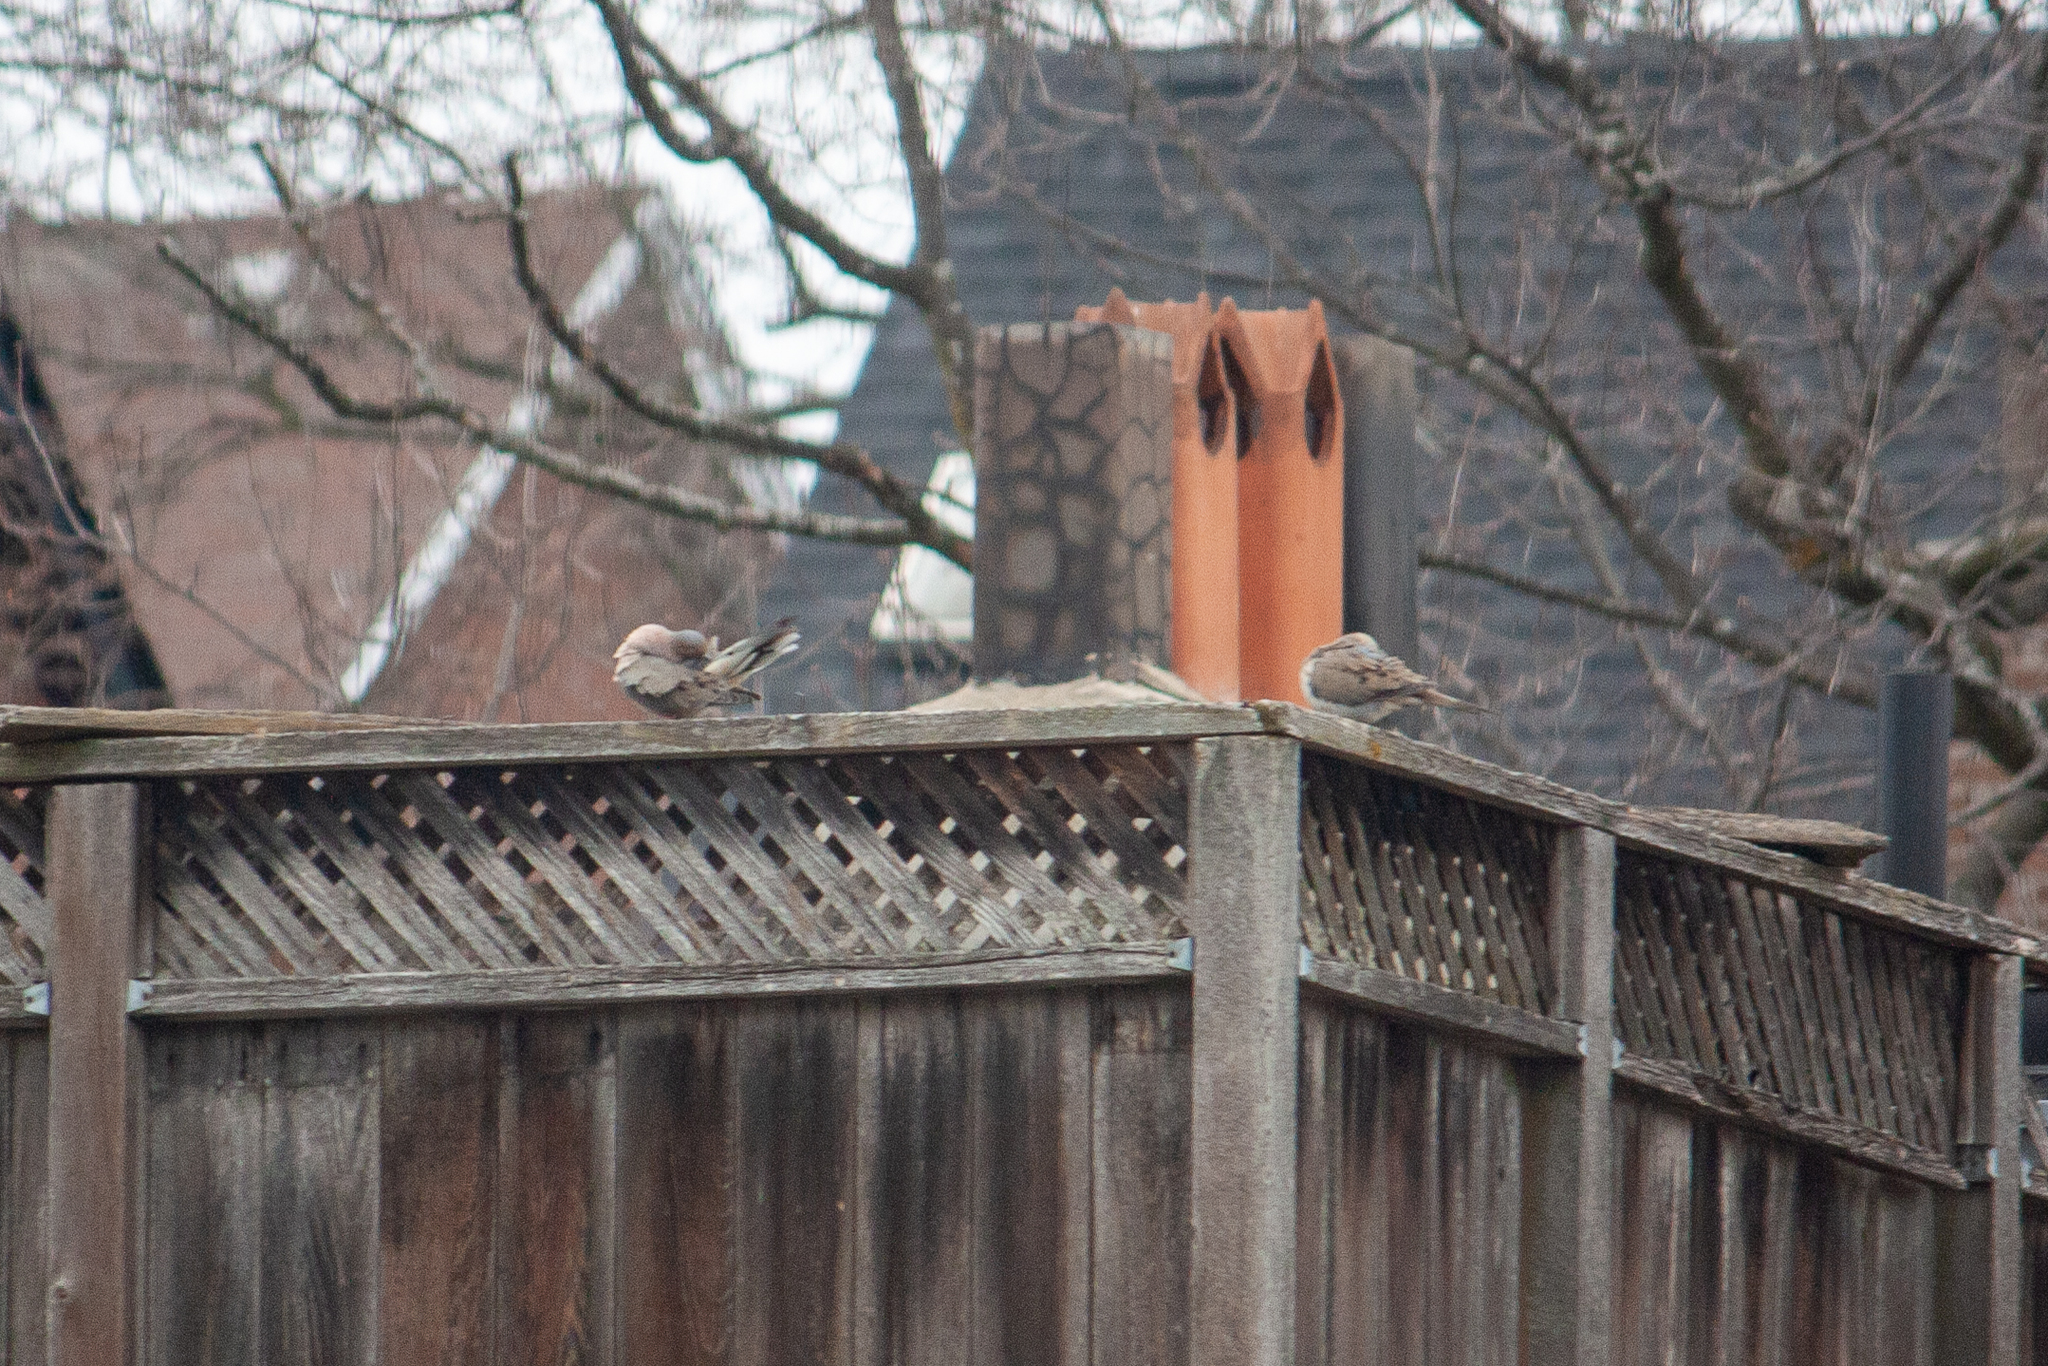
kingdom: Animalia
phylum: Chordata
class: Aves
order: Columbiformes
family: Columbidae
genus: Zenaida
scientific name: Zenaida macroura
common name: Mourning dove
